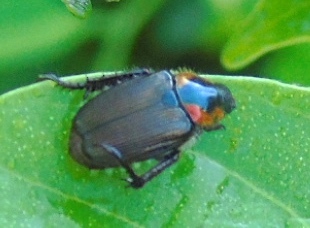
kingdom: Animalia
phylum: Arthropoda
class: Insecta
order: Coleoptera
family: Scarabaeidae
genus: Strigoderma
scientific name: Strigoderma sulcipennis
